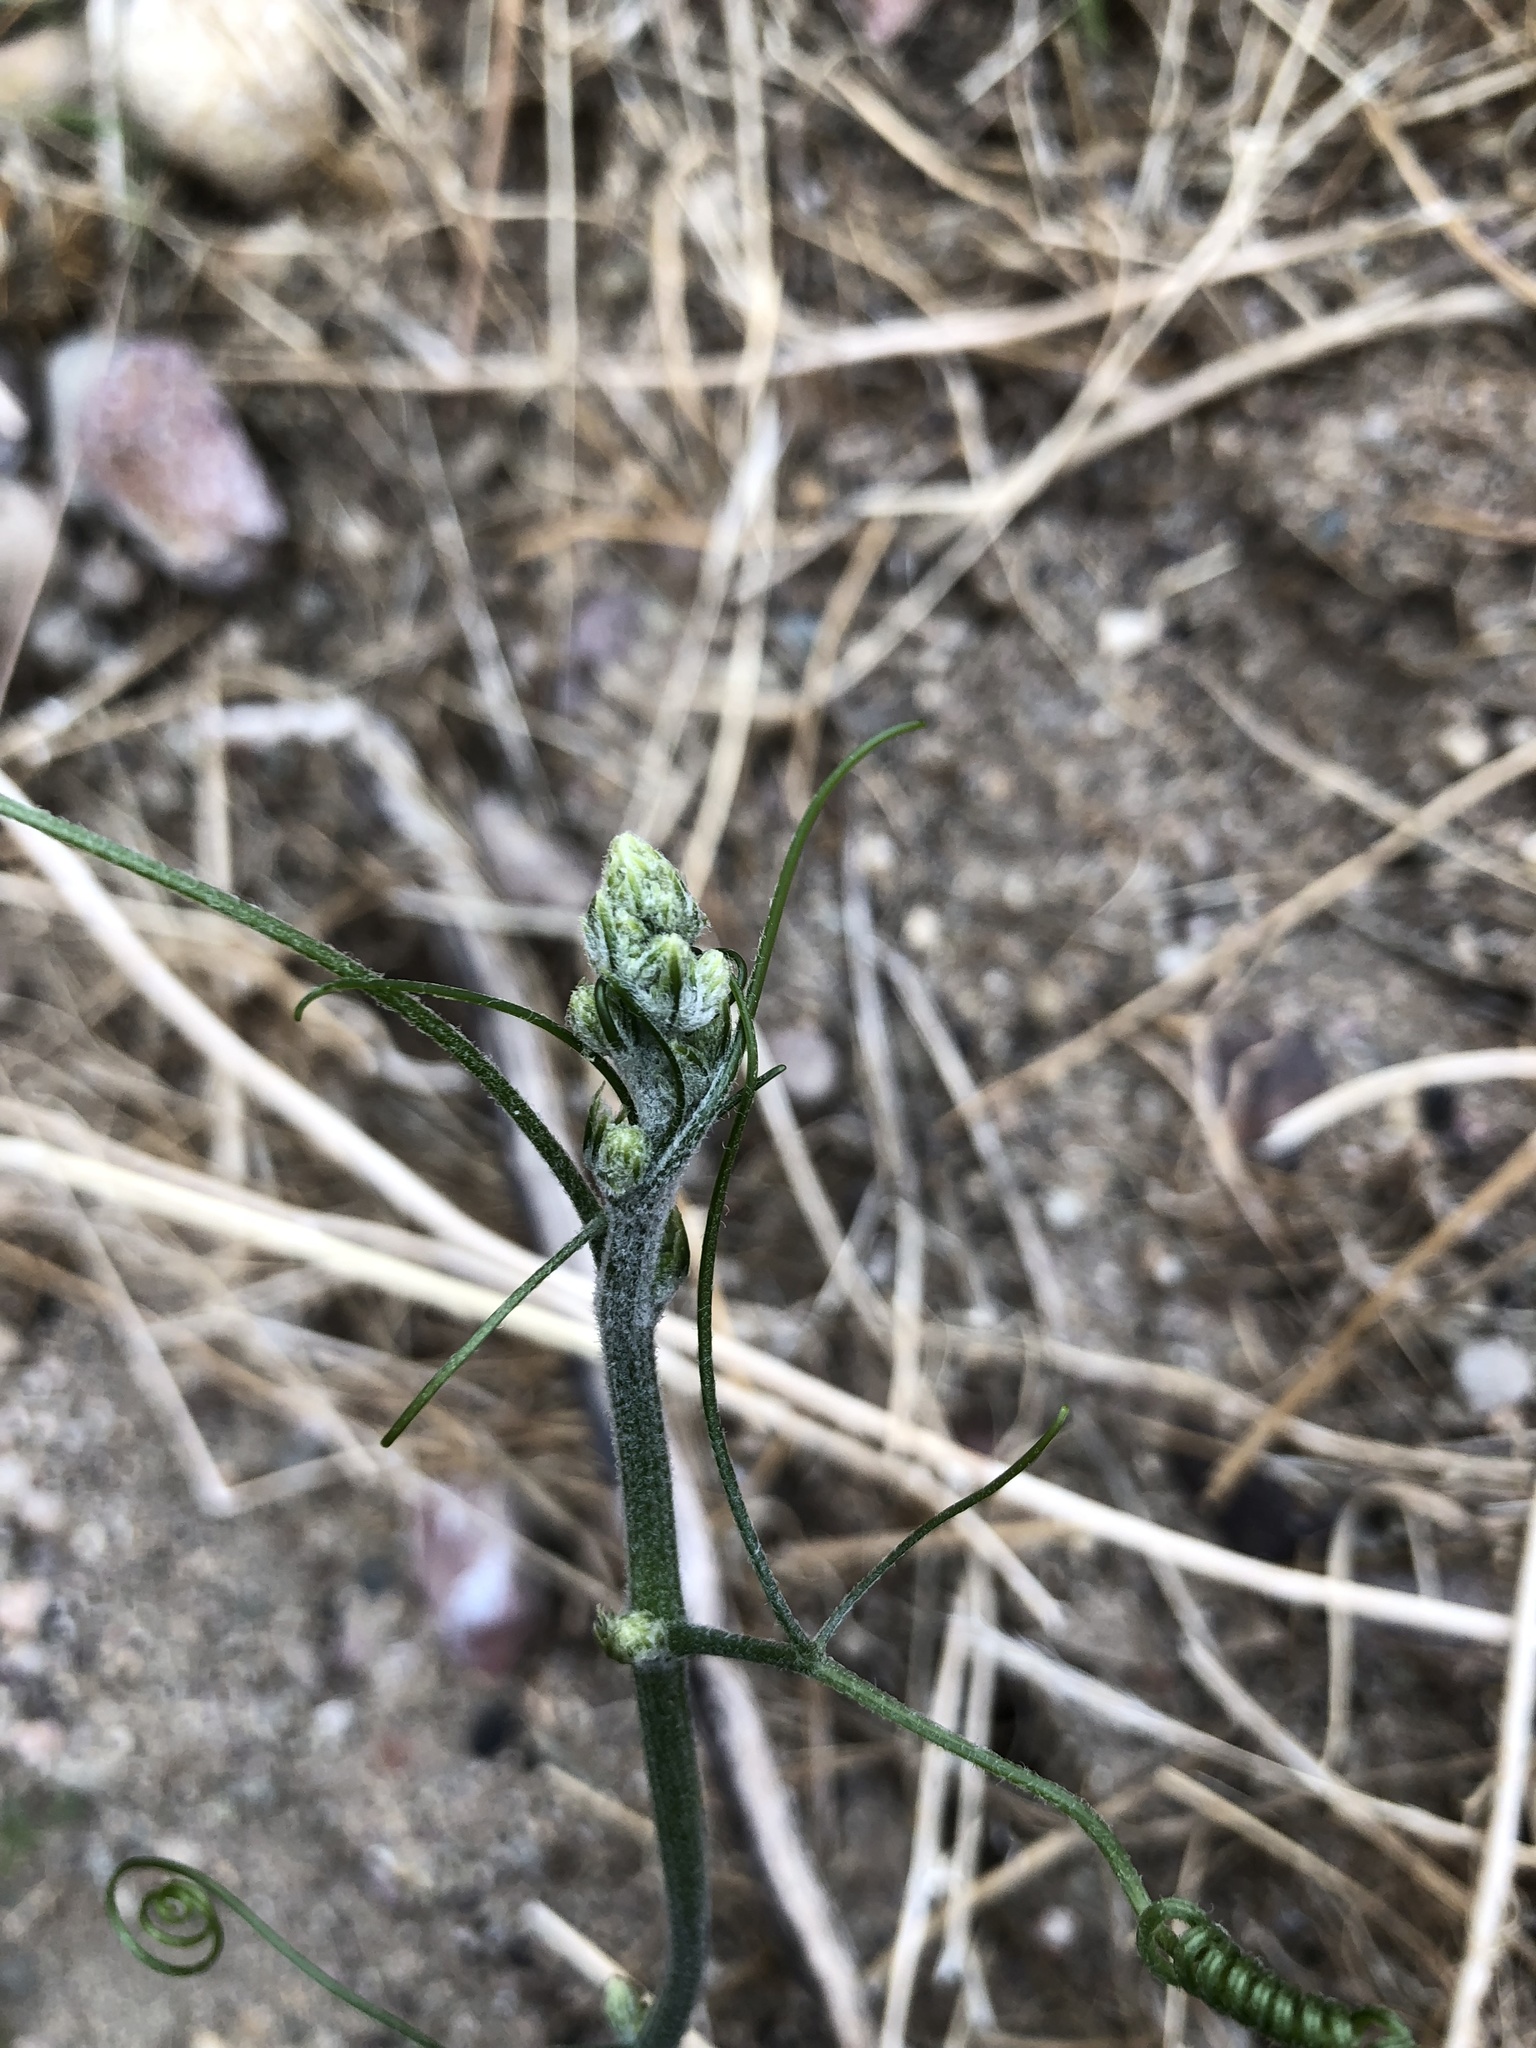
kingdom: Plantae
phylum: Tracheophyta
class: Magnoliopsida
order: Cucurbitales
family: Cucurbitaceae
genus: Marah
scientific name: Marah macrocarpa
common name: Cucamonga manroot
